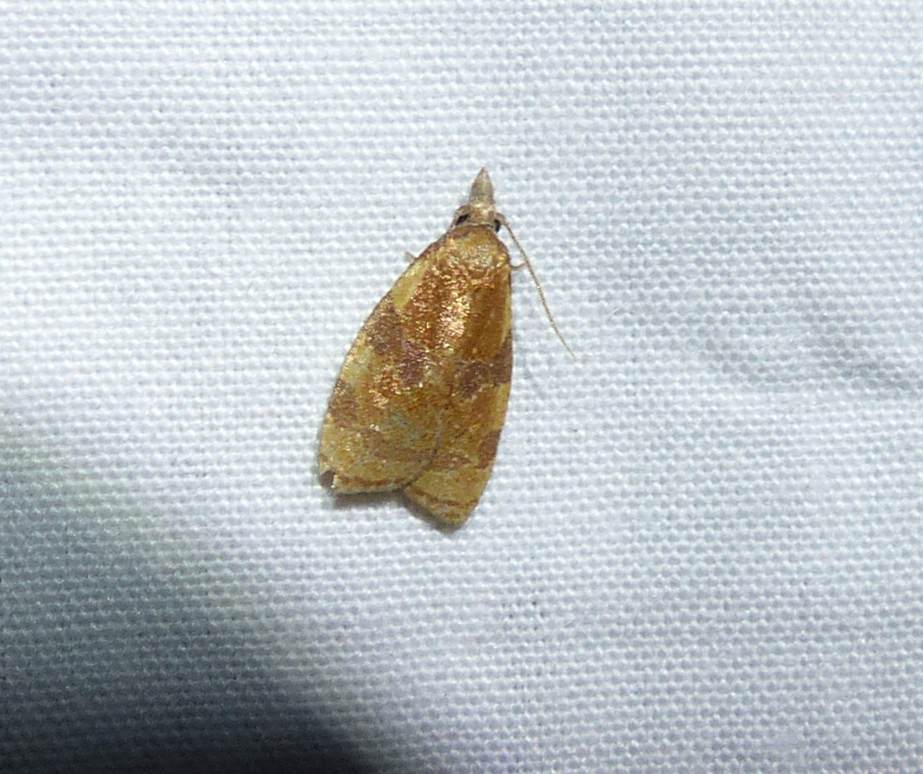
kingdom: Animalia
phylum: Arthropoda
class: Insecta
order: Lepidoptera
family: Tortricidae
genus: Cenopis
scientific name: Cenopis diluticostana
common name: Spring dead-leaf roller moth
